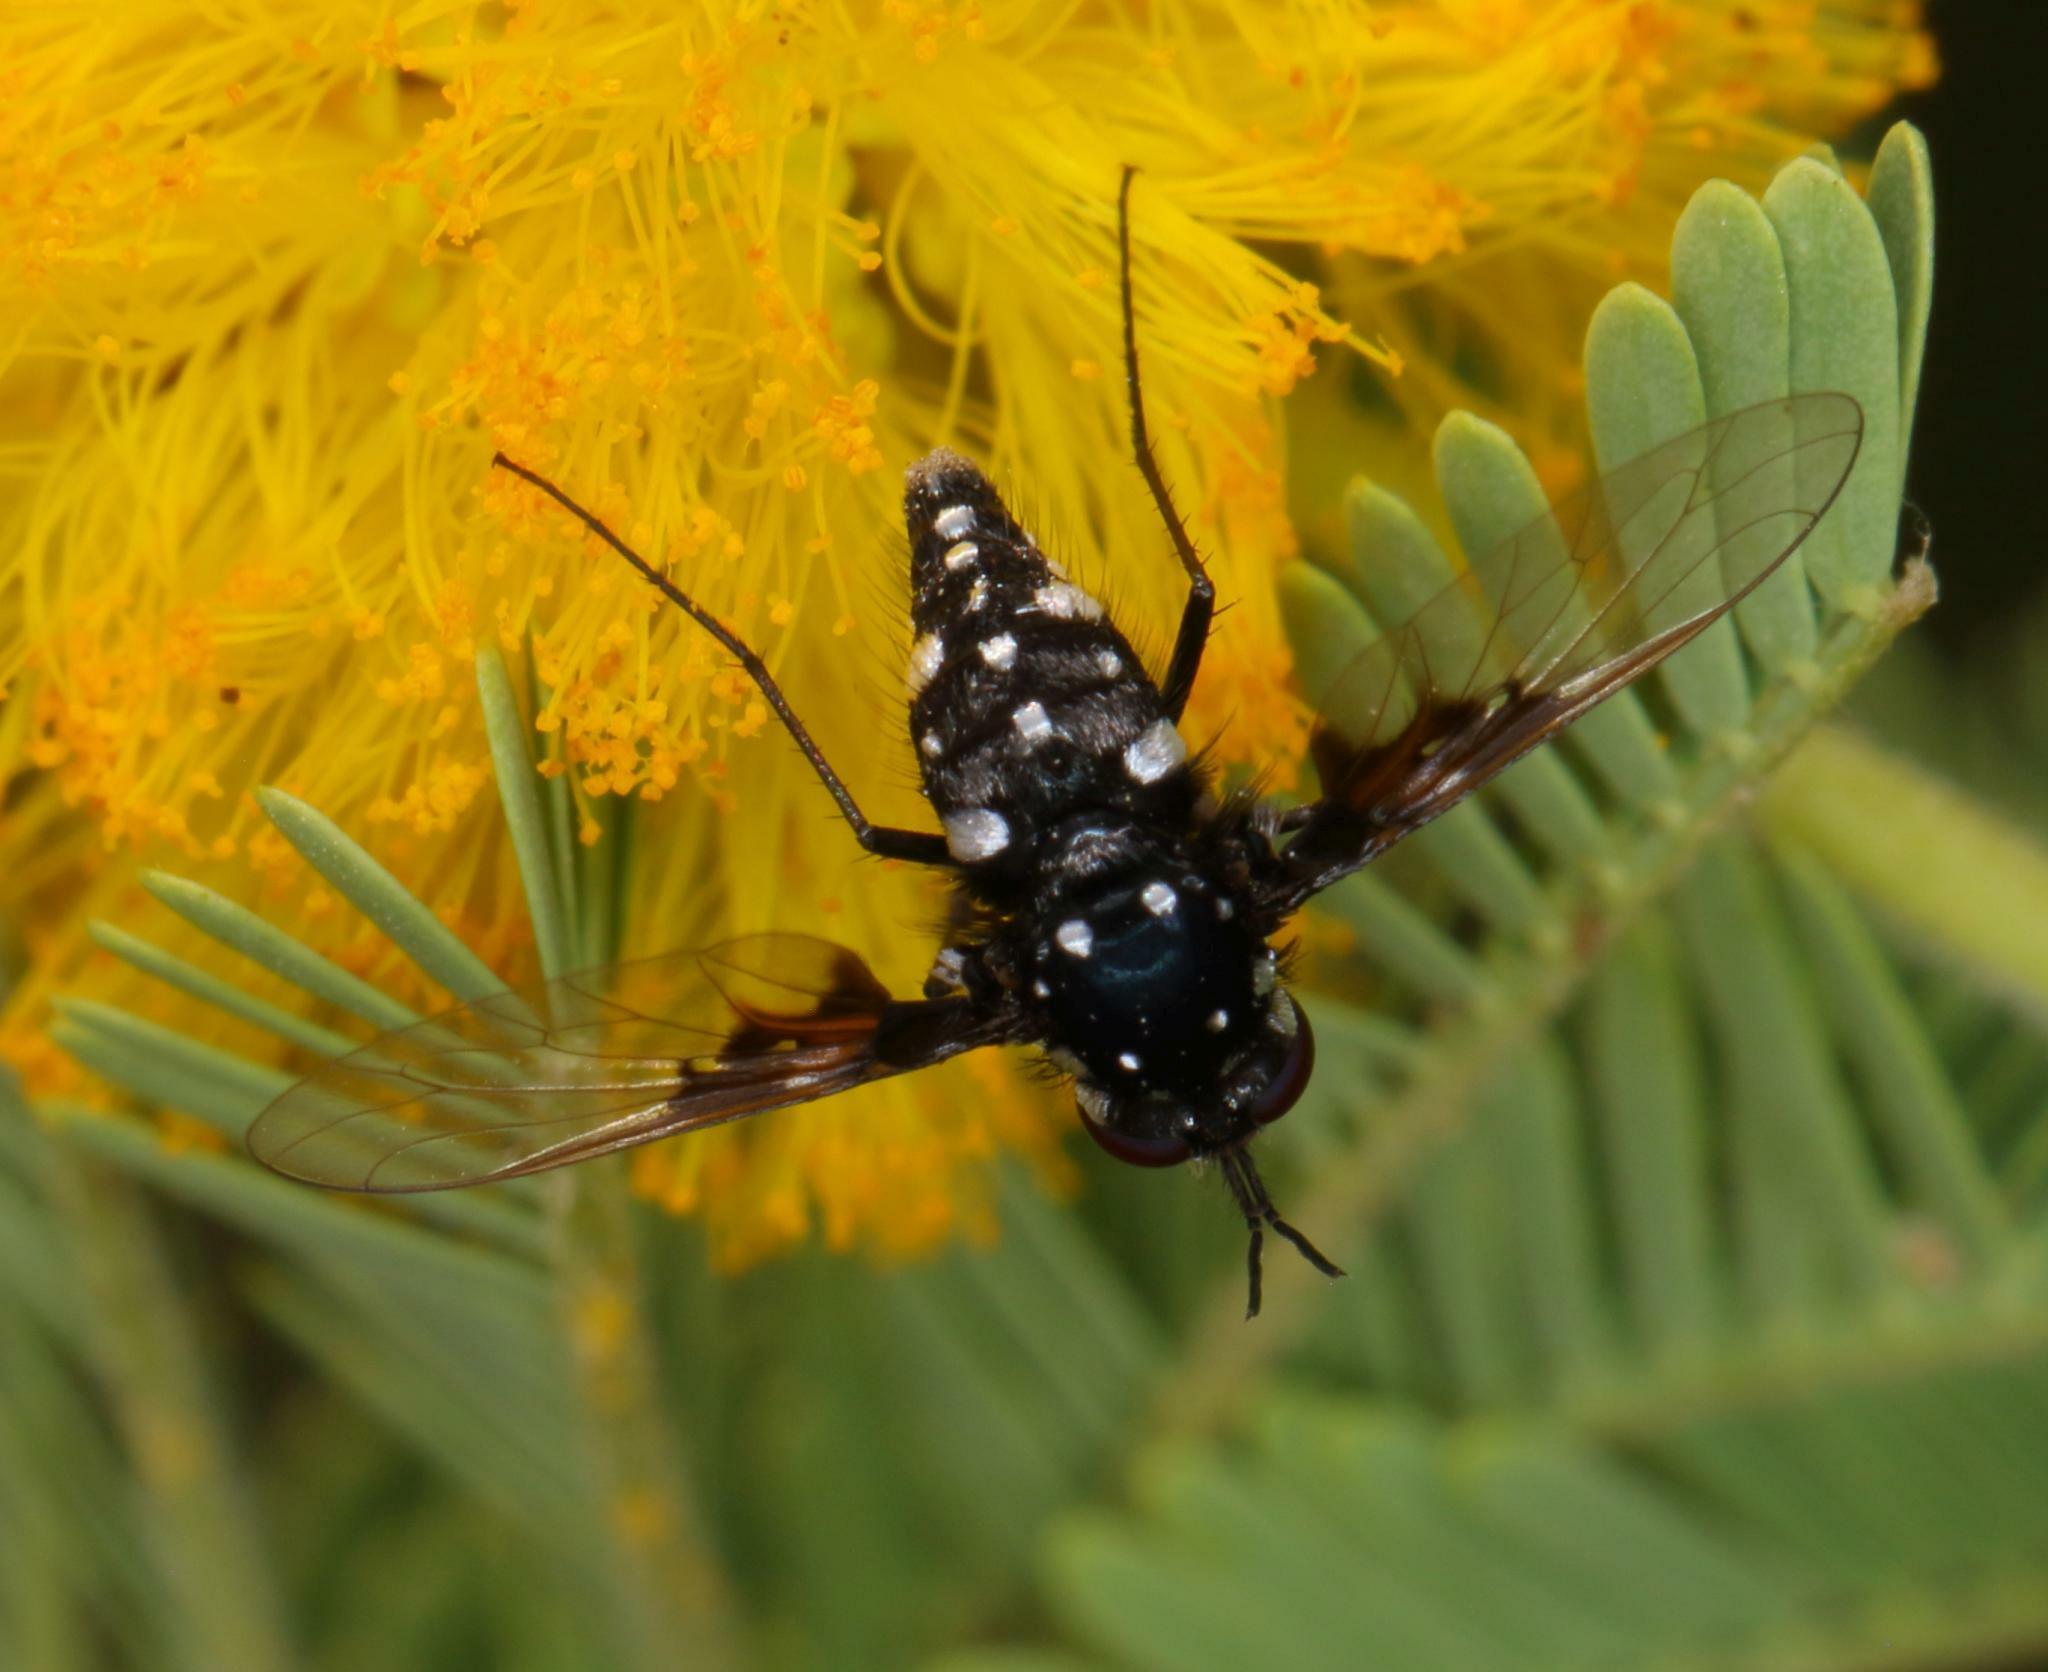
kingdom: Animalia
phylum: Arthropoda
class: Insecta
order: Diptera
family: Bombyliidae
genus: Bombylella
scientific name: Bombylella delicata
